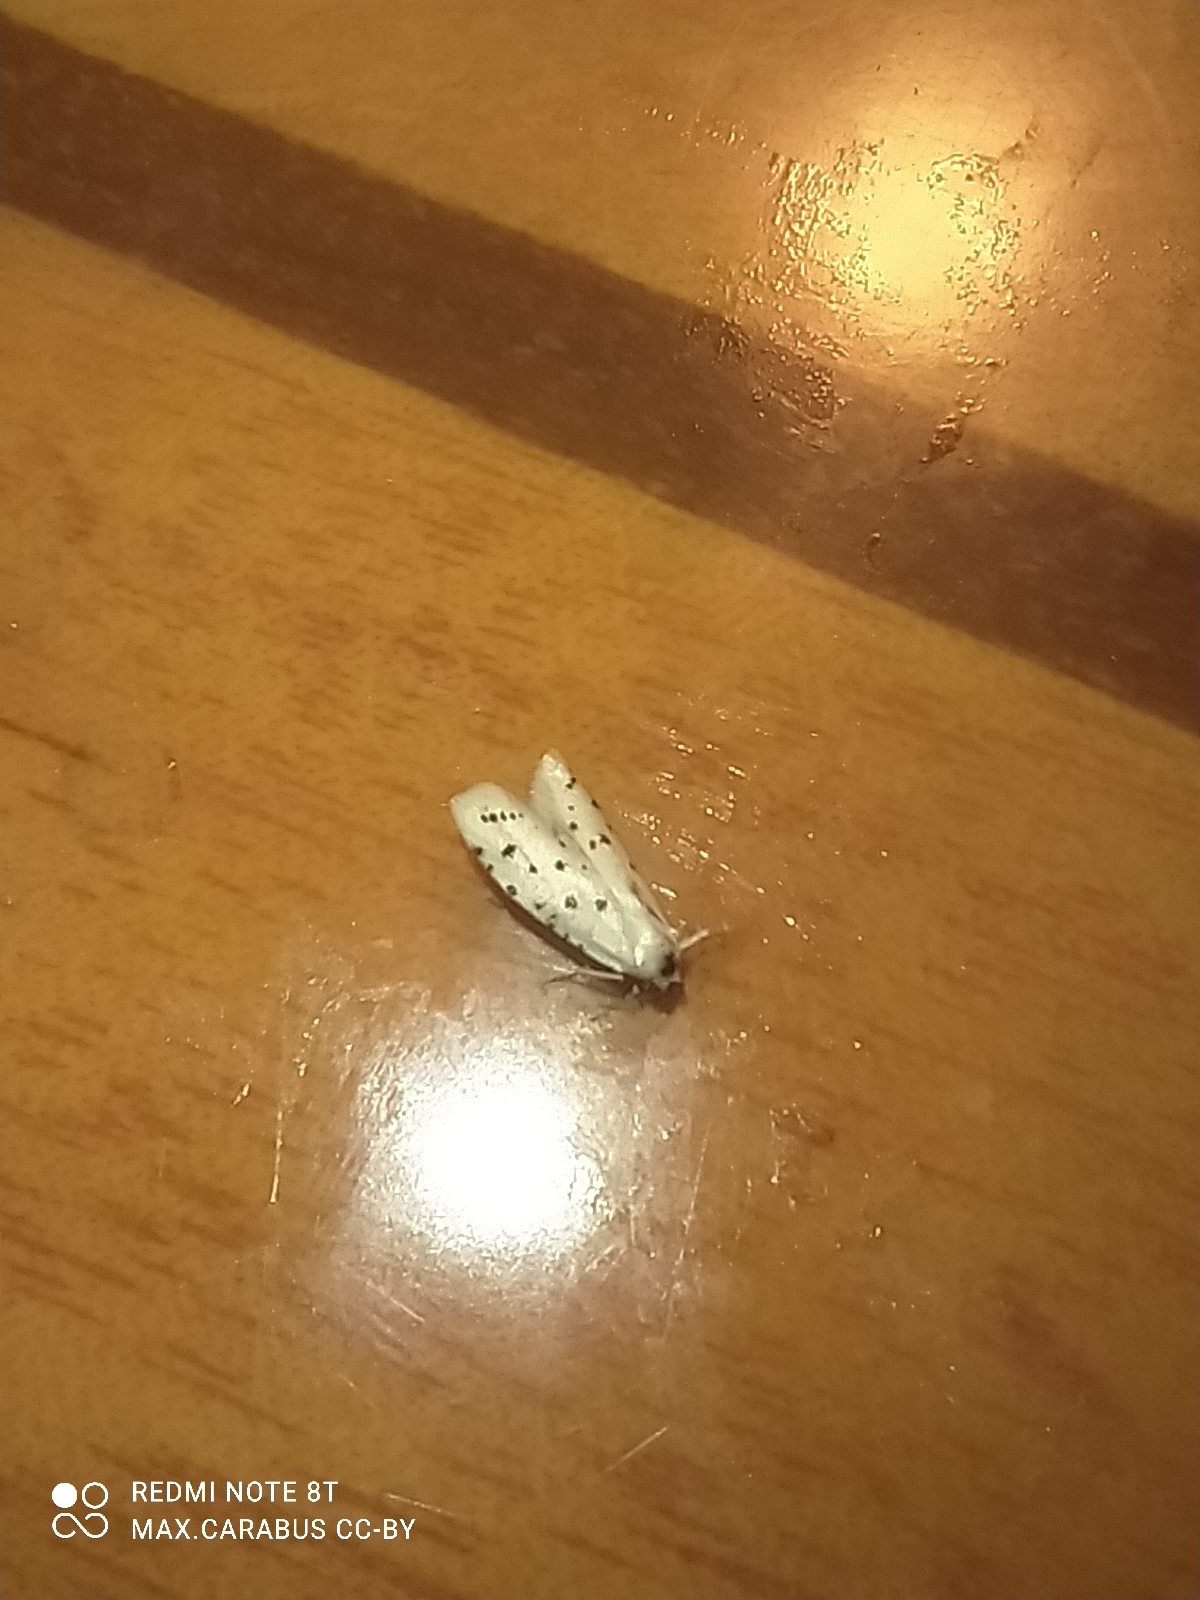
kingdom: Animalia
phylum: Arthropoda
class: Insecta
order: Lepidoptera
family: Pyralidae
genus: Myelois
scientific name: Myelois circumvoluta
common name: Thistle ermine
